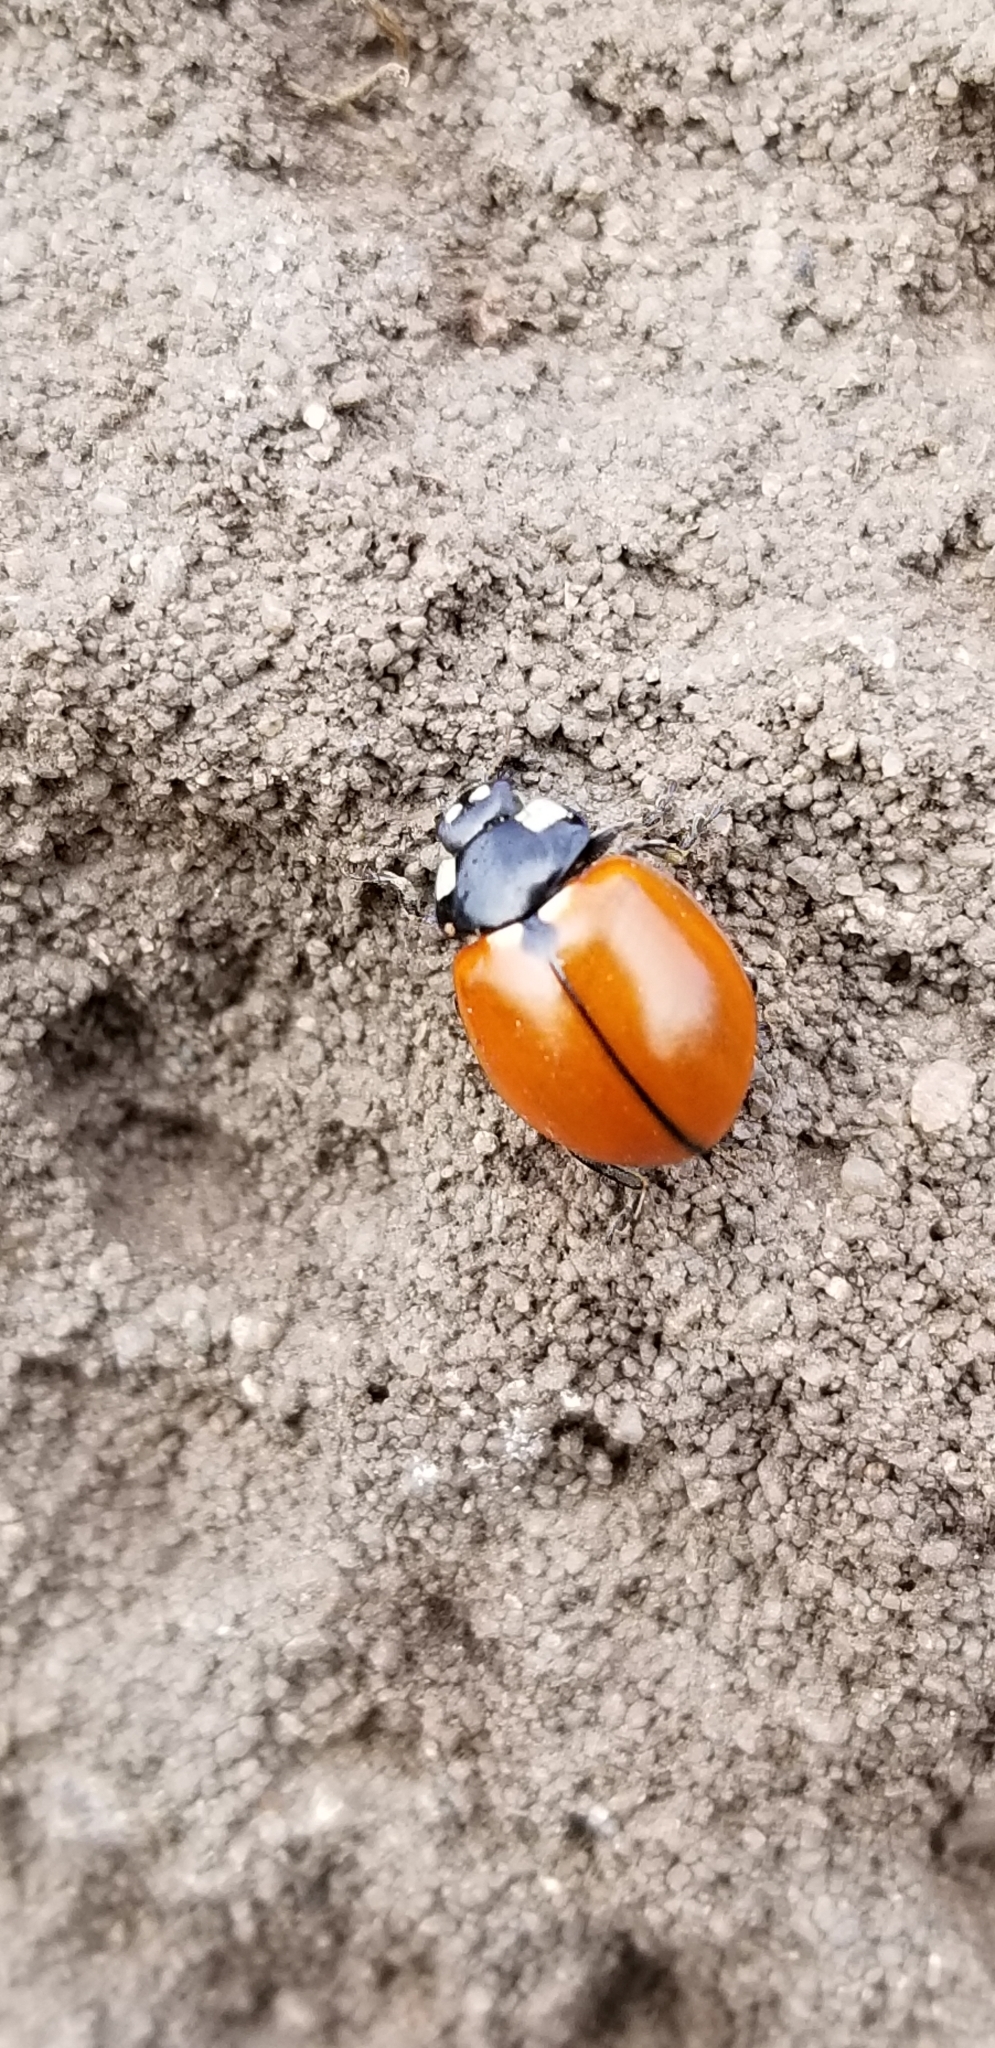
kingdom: Animalia
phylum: Arthropoda
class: Insecta
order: Coleoptera
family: Coccinellidae
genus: Coccinella
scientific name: Coccinella californica
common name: Lady beetle
